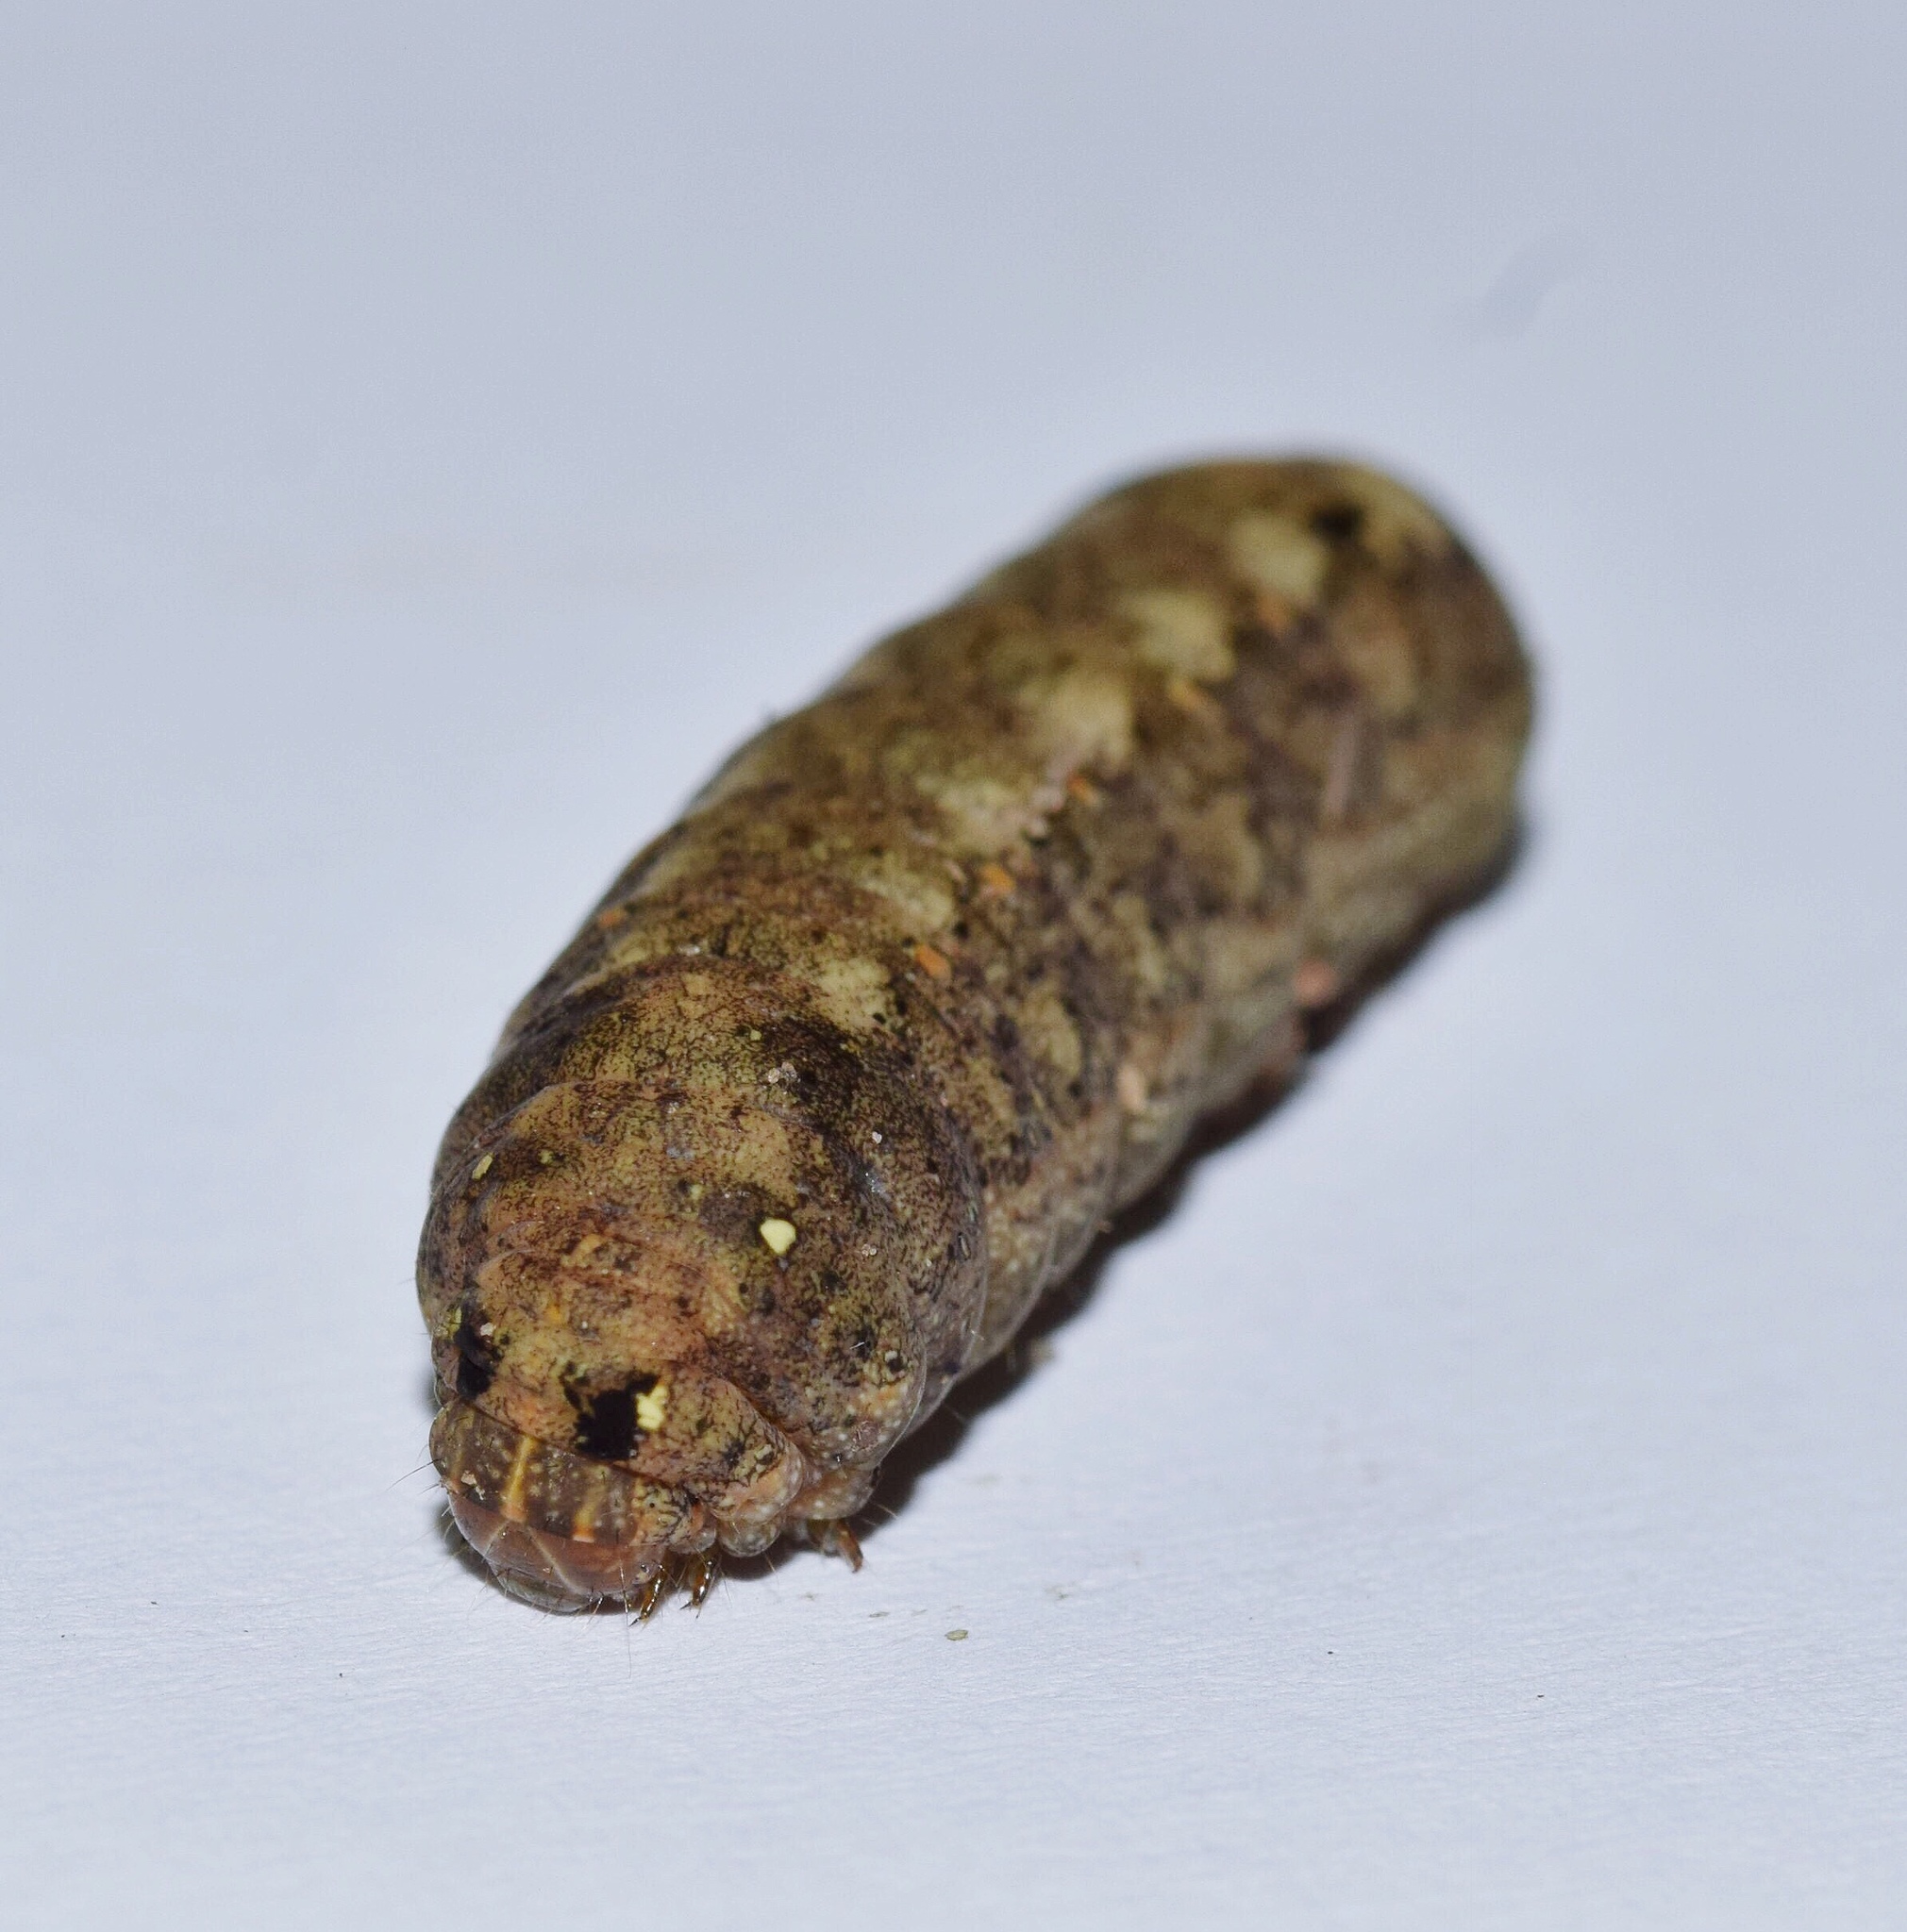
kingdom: Animalia
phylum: Arthropoda
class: Insecta
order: Lepidoptera
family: Noctuidae
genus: Spodoptera
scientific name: Spodoptera littoralis
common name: Egyptian cotton leafworm
